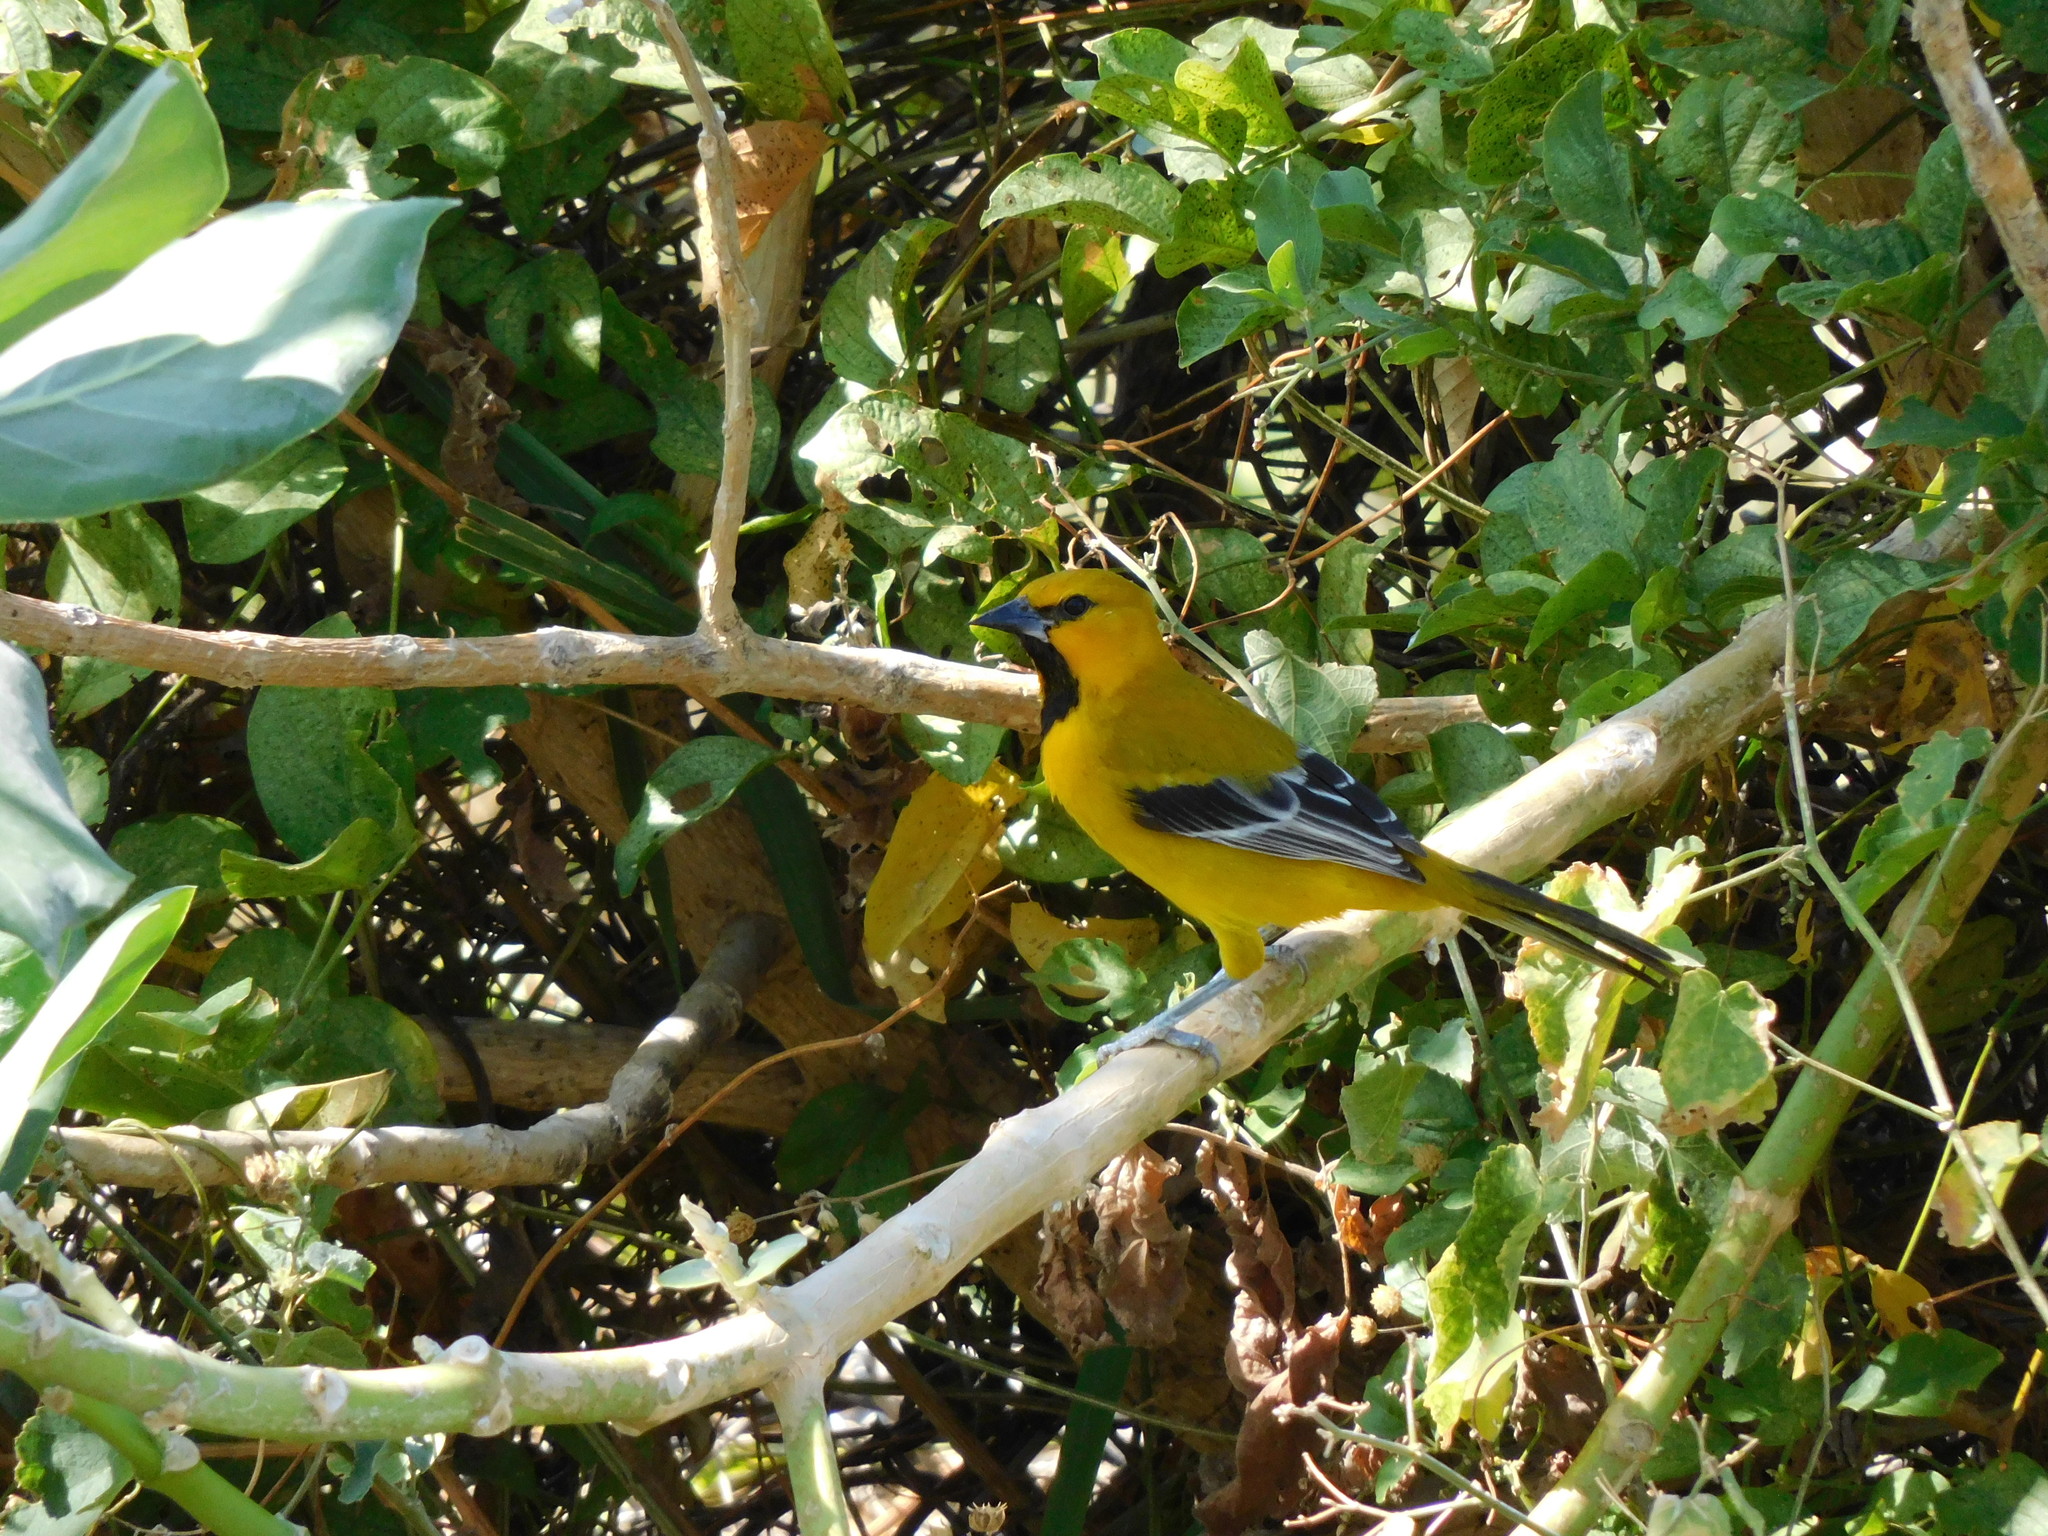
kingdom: Animalia
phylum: Chordata
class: Aves
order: Passeriformes
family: Icteridae
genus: Icterus
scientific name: Icterus nigrogularis
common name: Yellow oriole
